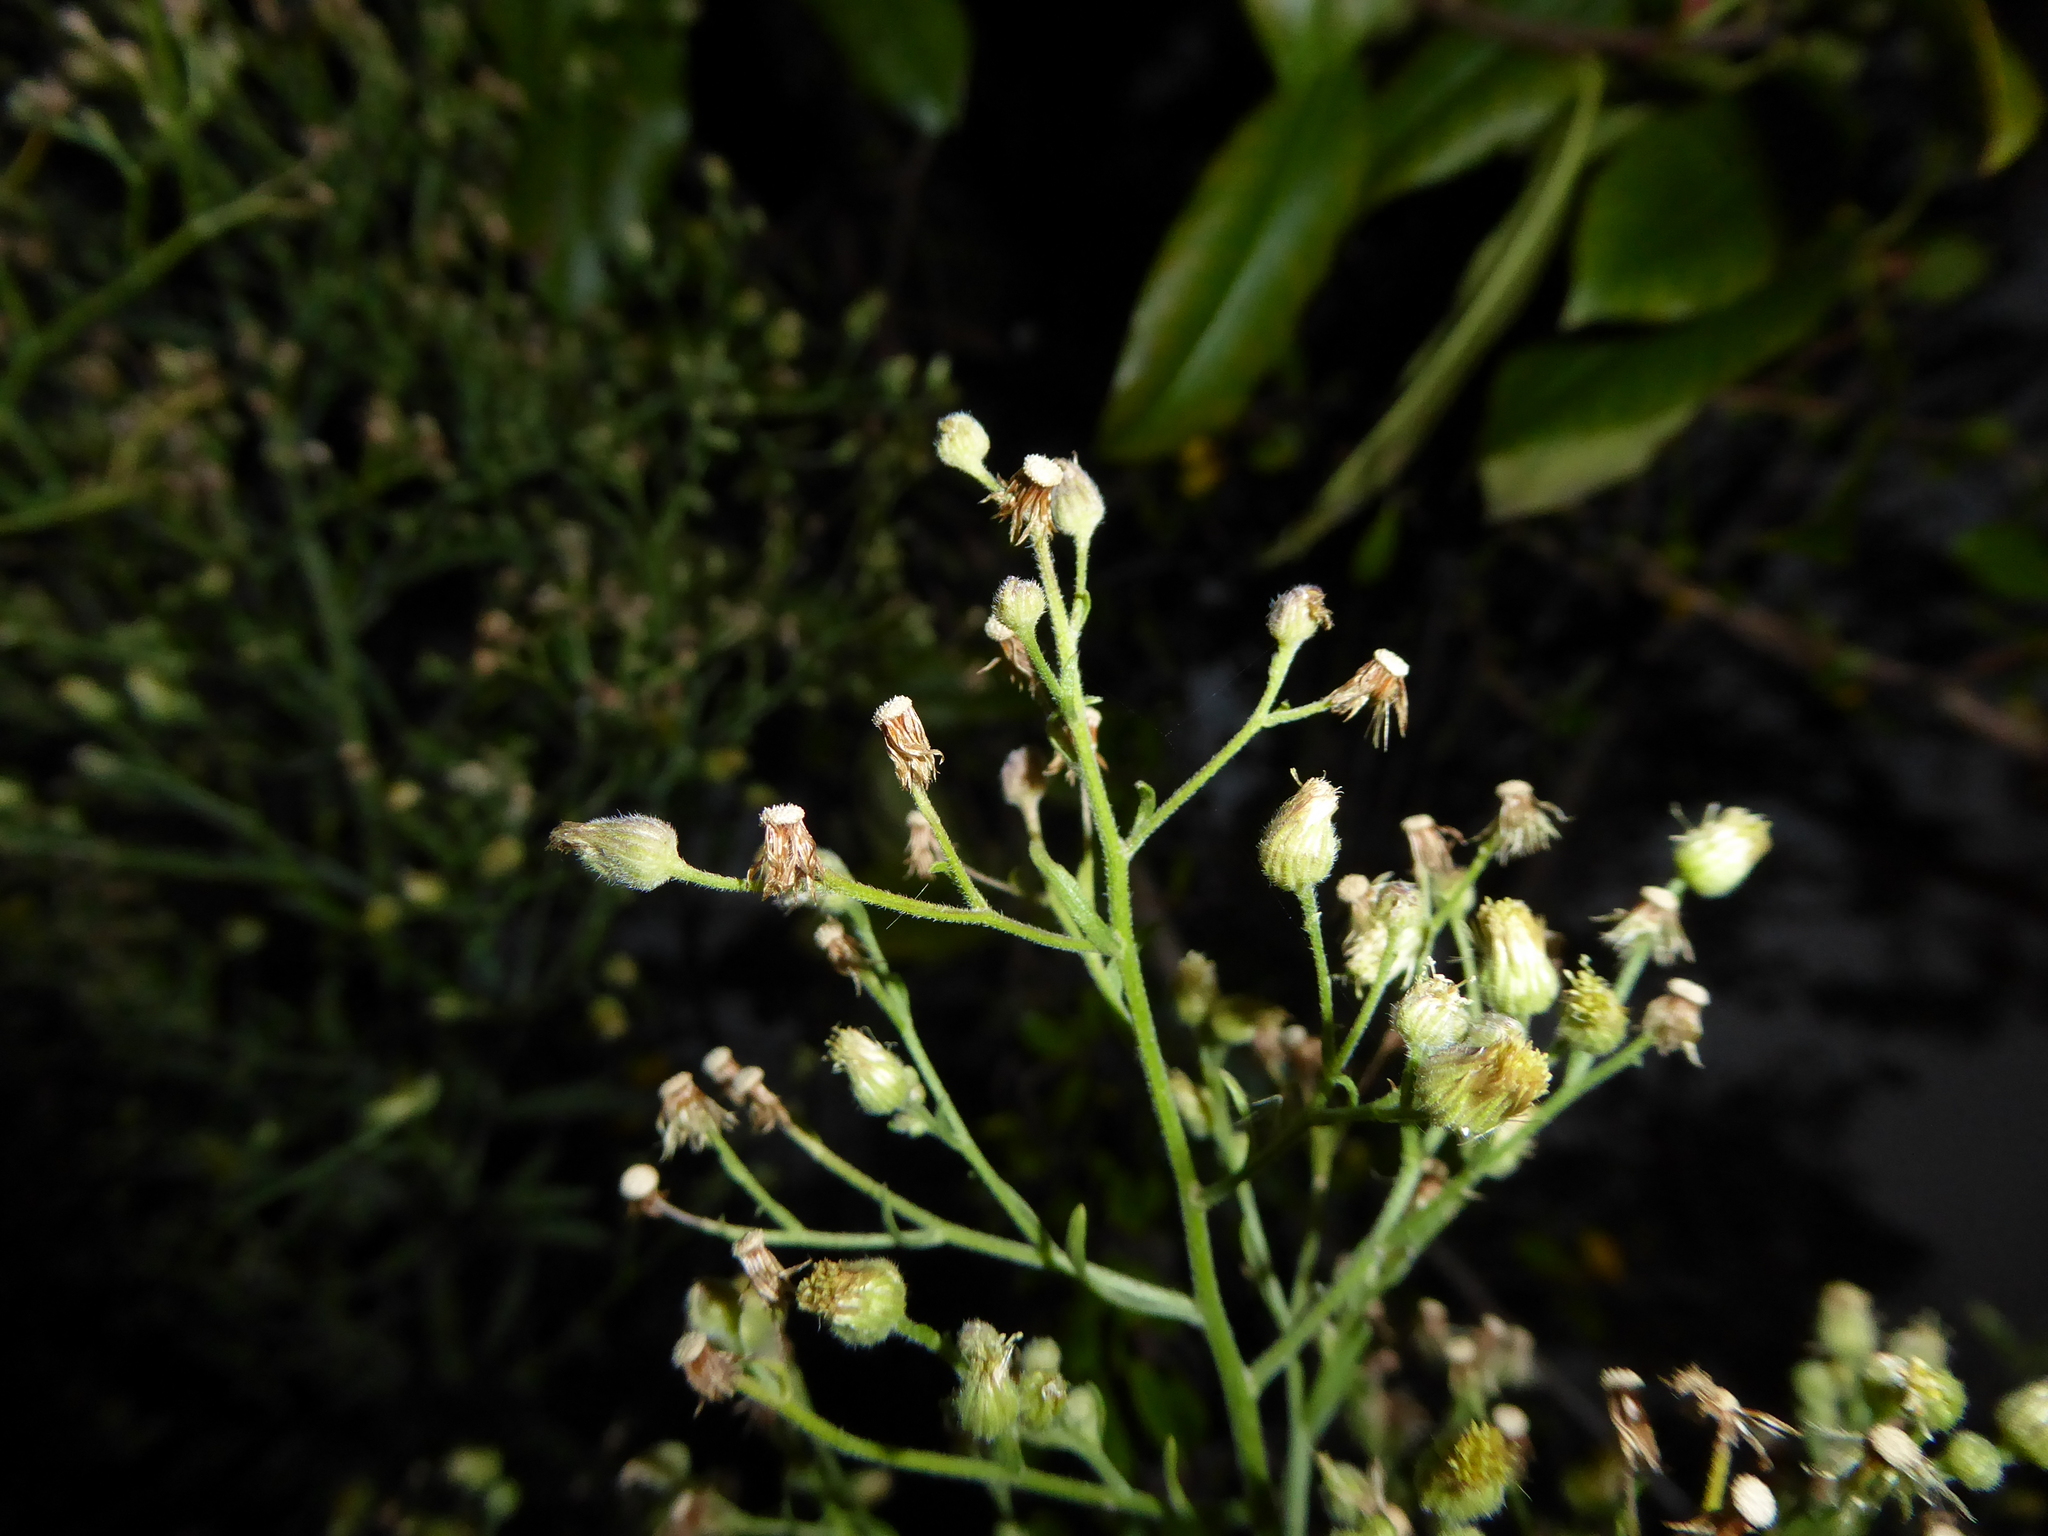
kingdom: Plantae
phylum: Tracheophyta
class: Magnoliopsida
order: Asterales
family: Asteraceae
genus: Erigeron
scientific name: Erigeron sumatrensis
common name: Daisy
